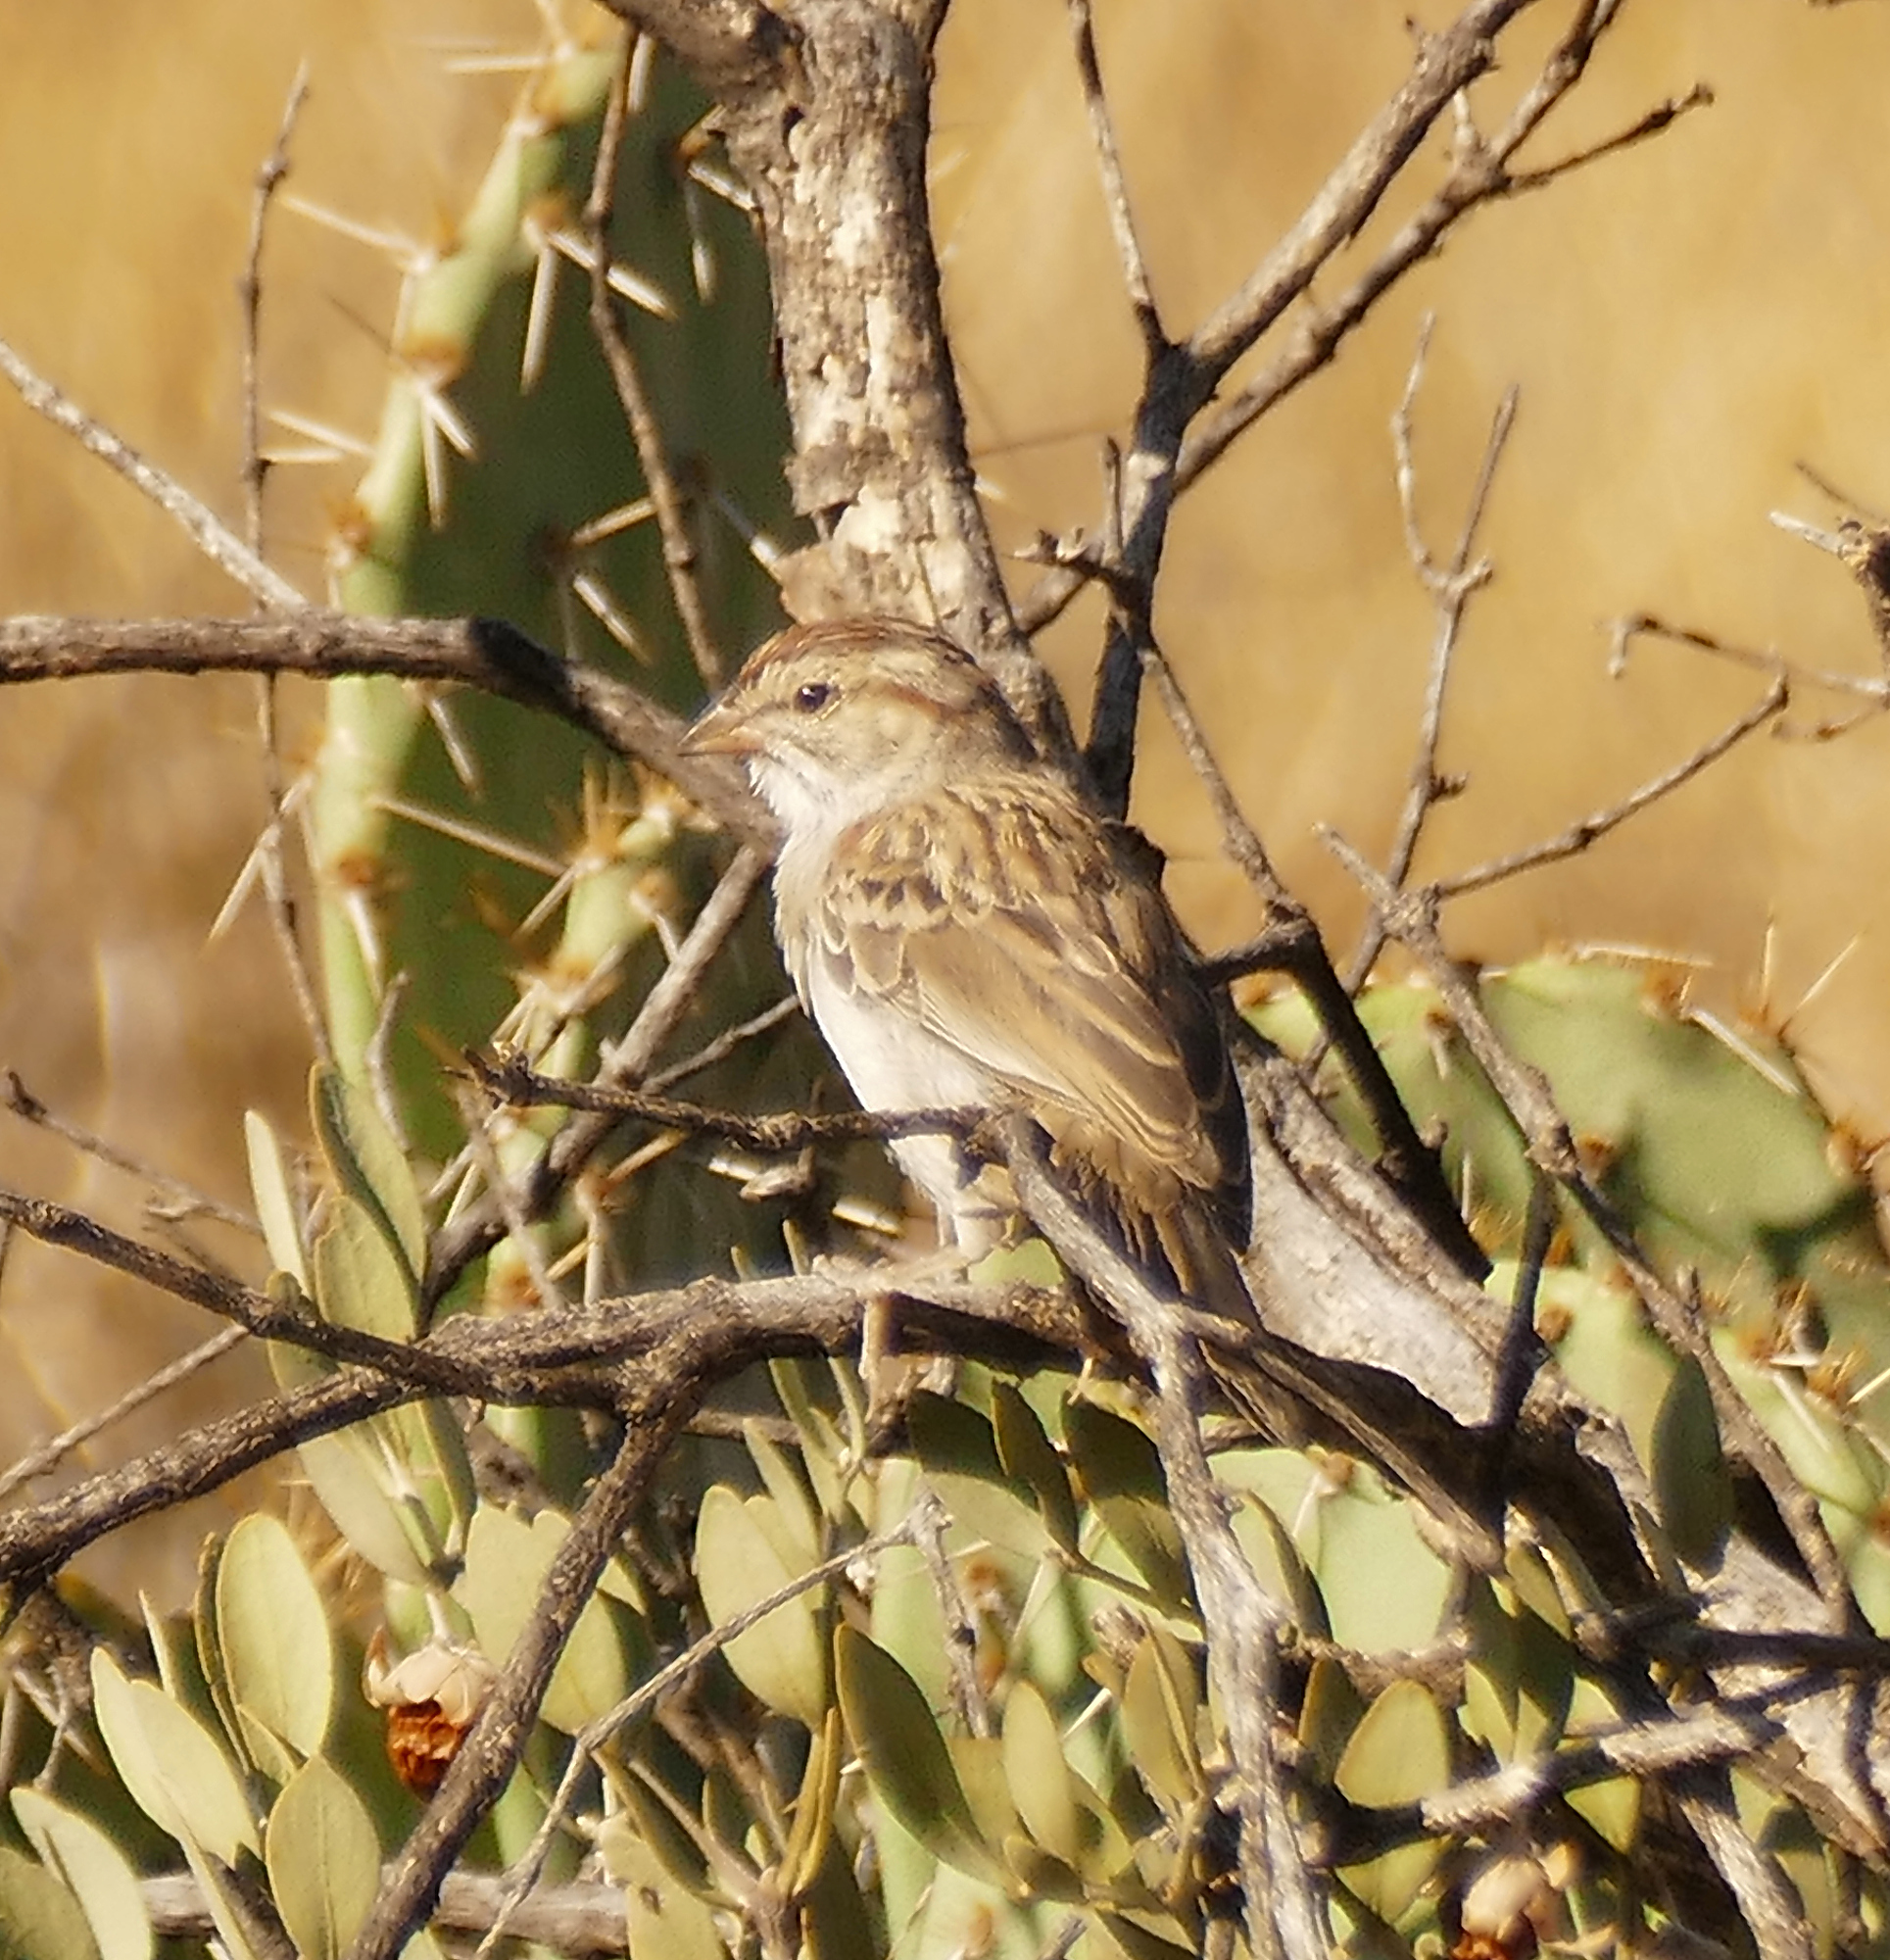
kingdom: Animalia
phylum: Chordata
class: Aves
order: Passeriformes
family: Passerellidae
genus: Peucaea
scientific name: Peucaea carpalis
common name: Rufous-winged sparrow
